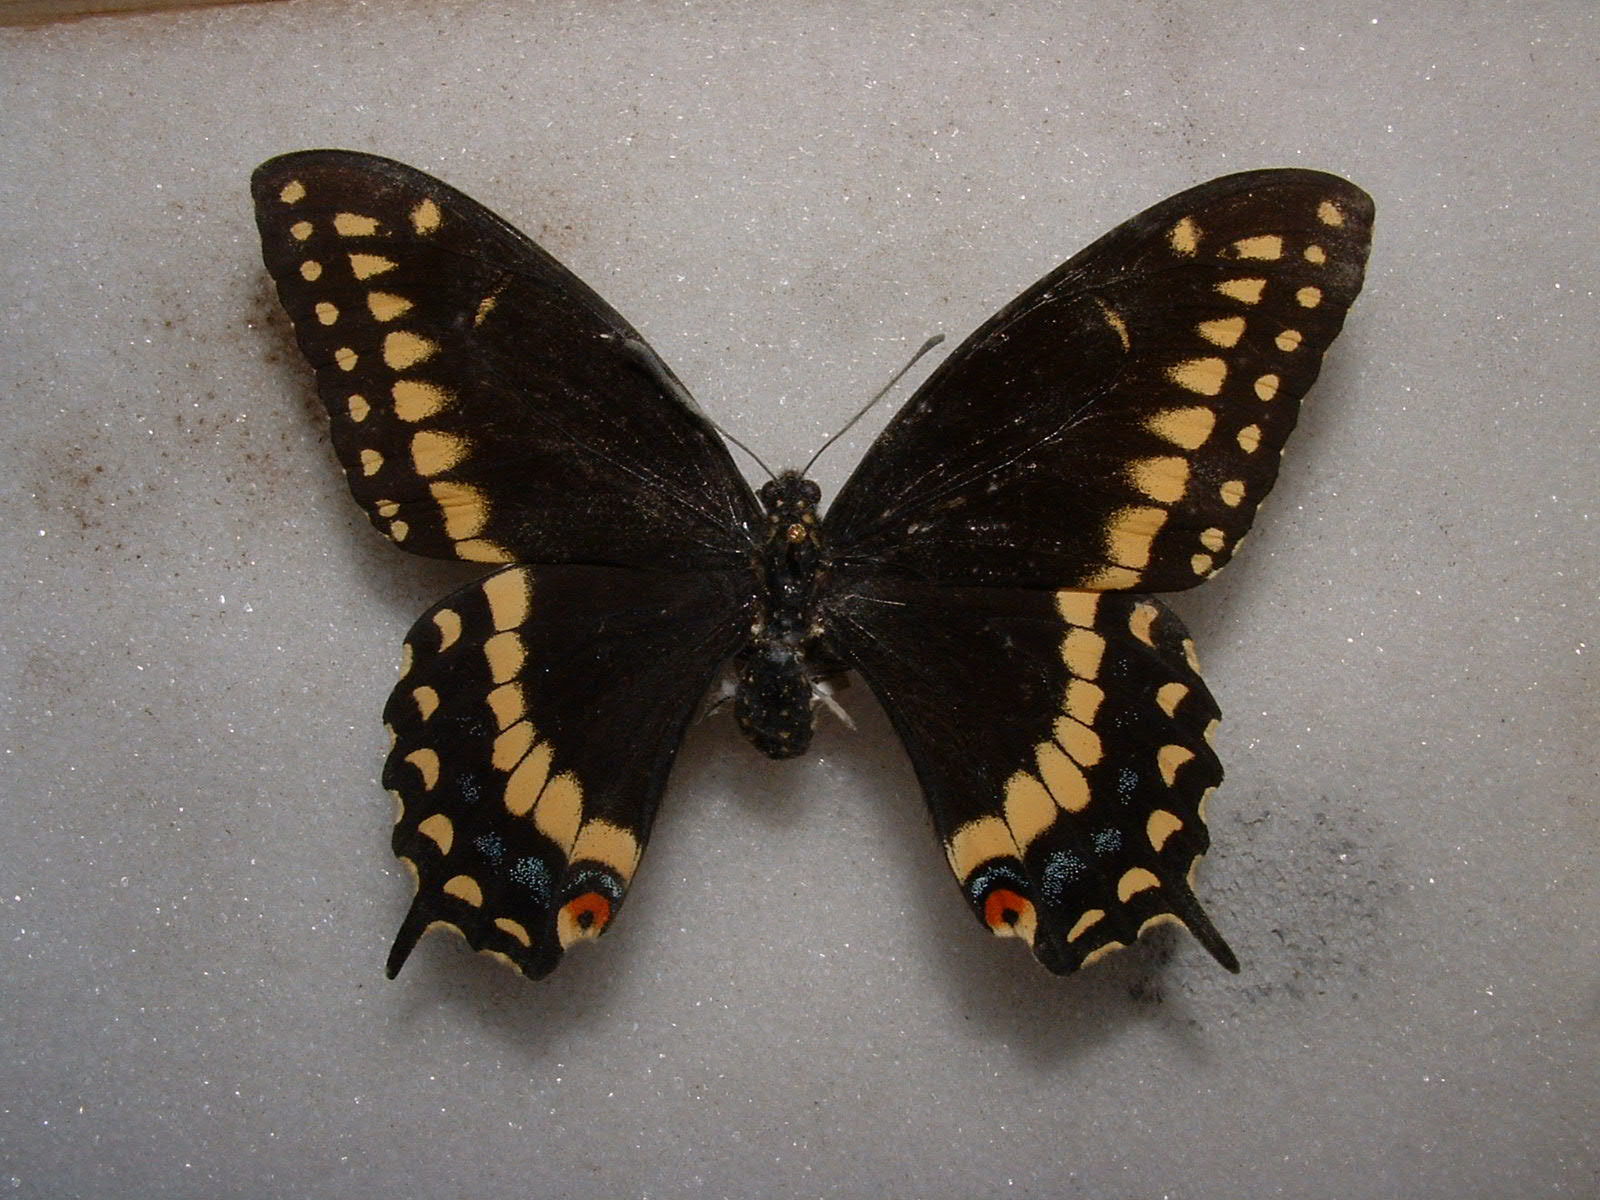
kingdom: Animalia
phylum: Arthropoda
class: Insecta
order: Lepidoptera
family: Papilionidae
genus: Papilio
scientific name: Papilio polyxenes
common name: Black swallowtail
